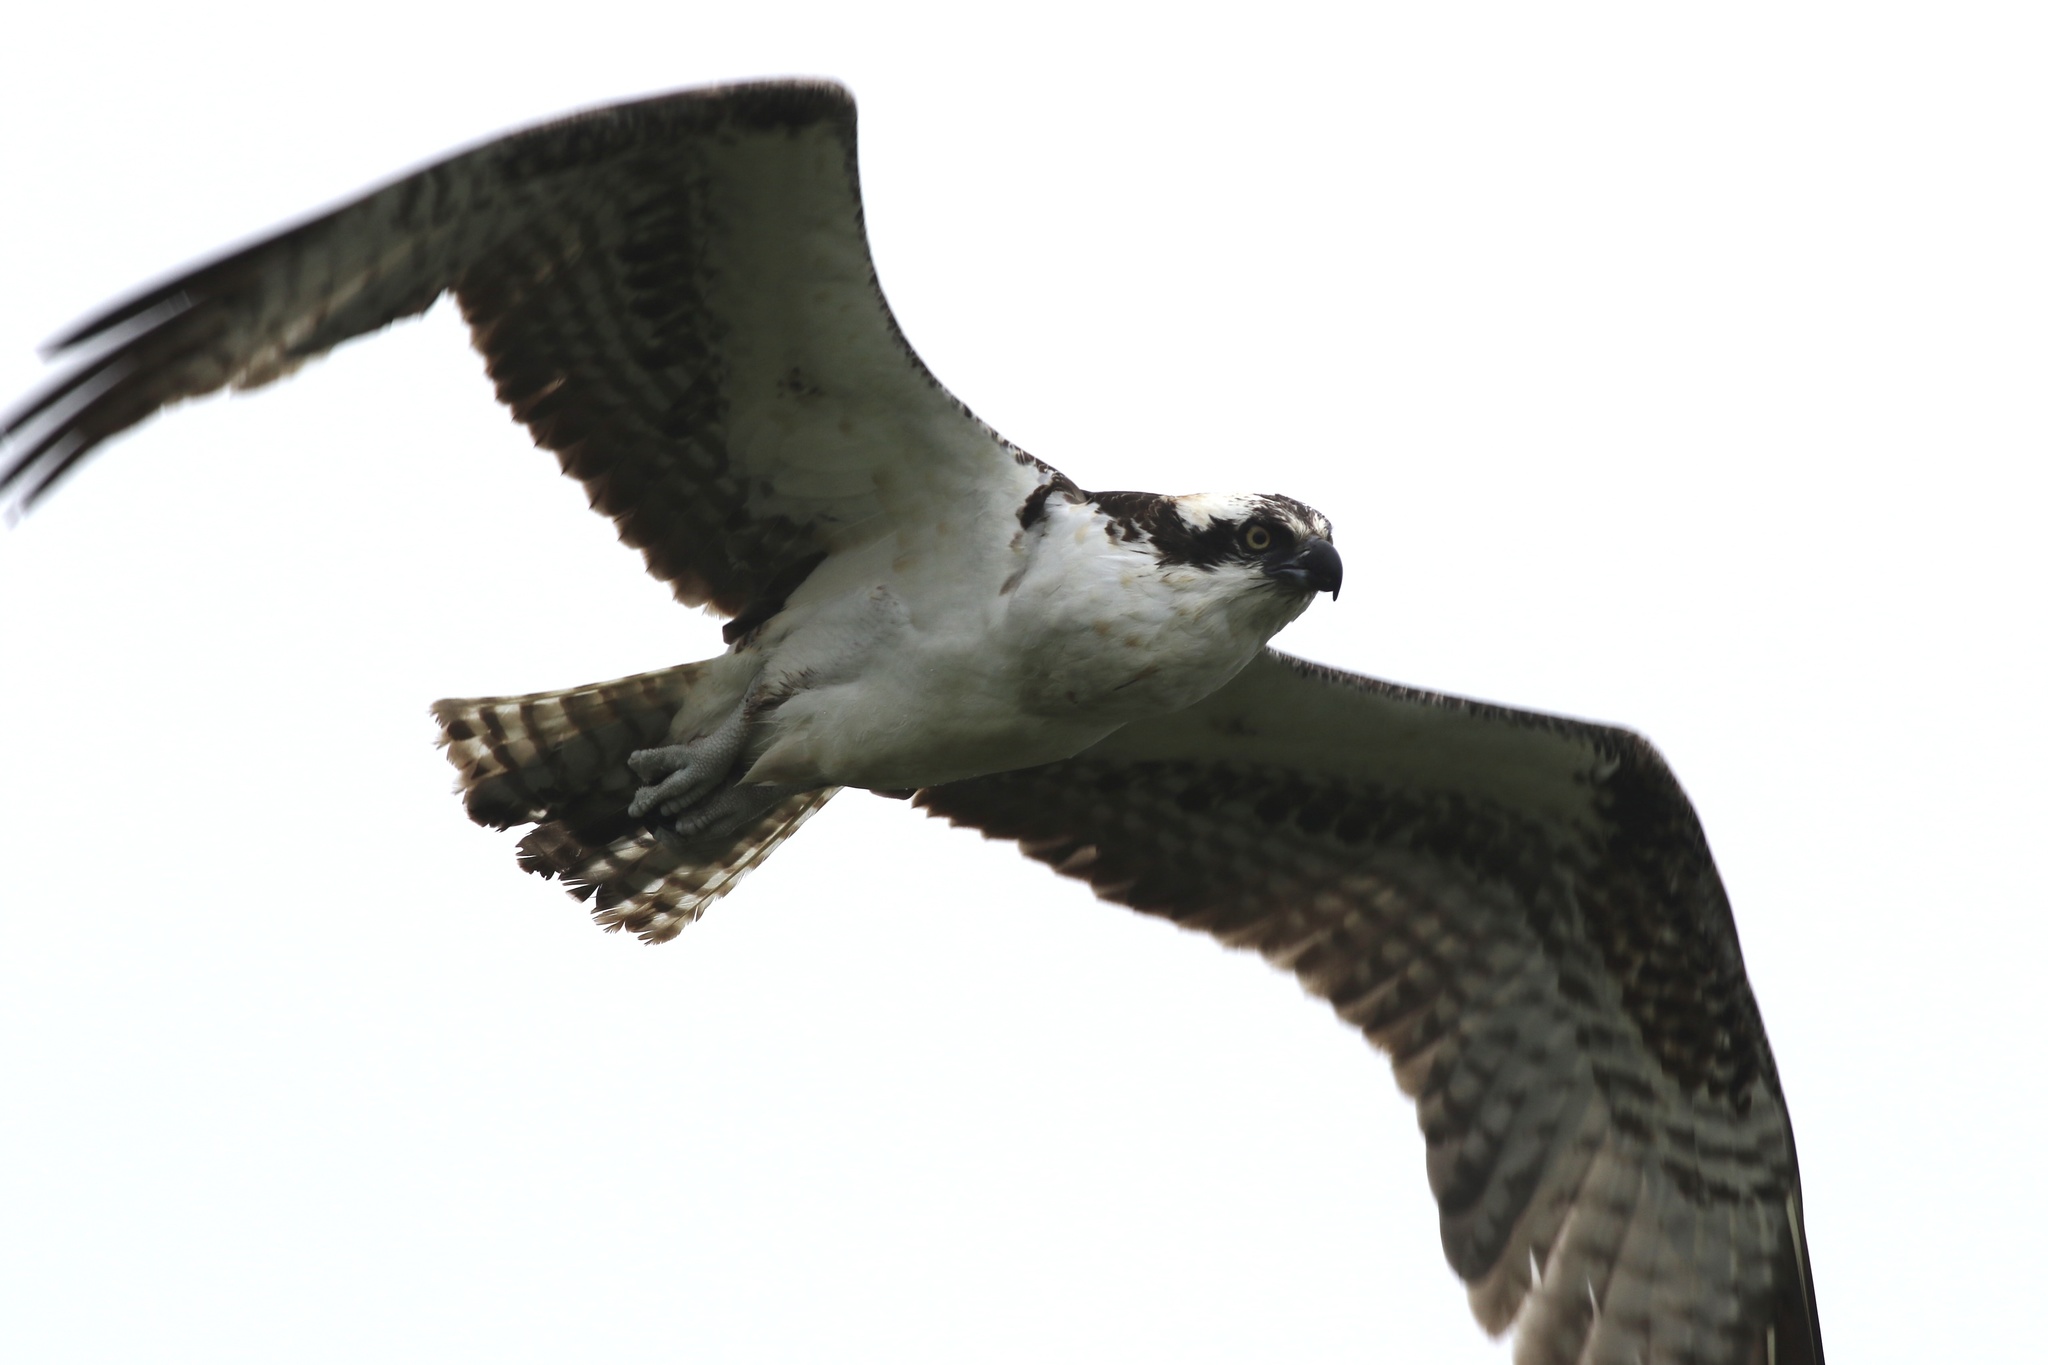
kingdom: Animalia
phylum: Chordata
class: Aves
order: Accipitriformes
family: Pandionidae
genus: Pandion
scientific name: Pandion haliaetus
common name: Osprey
